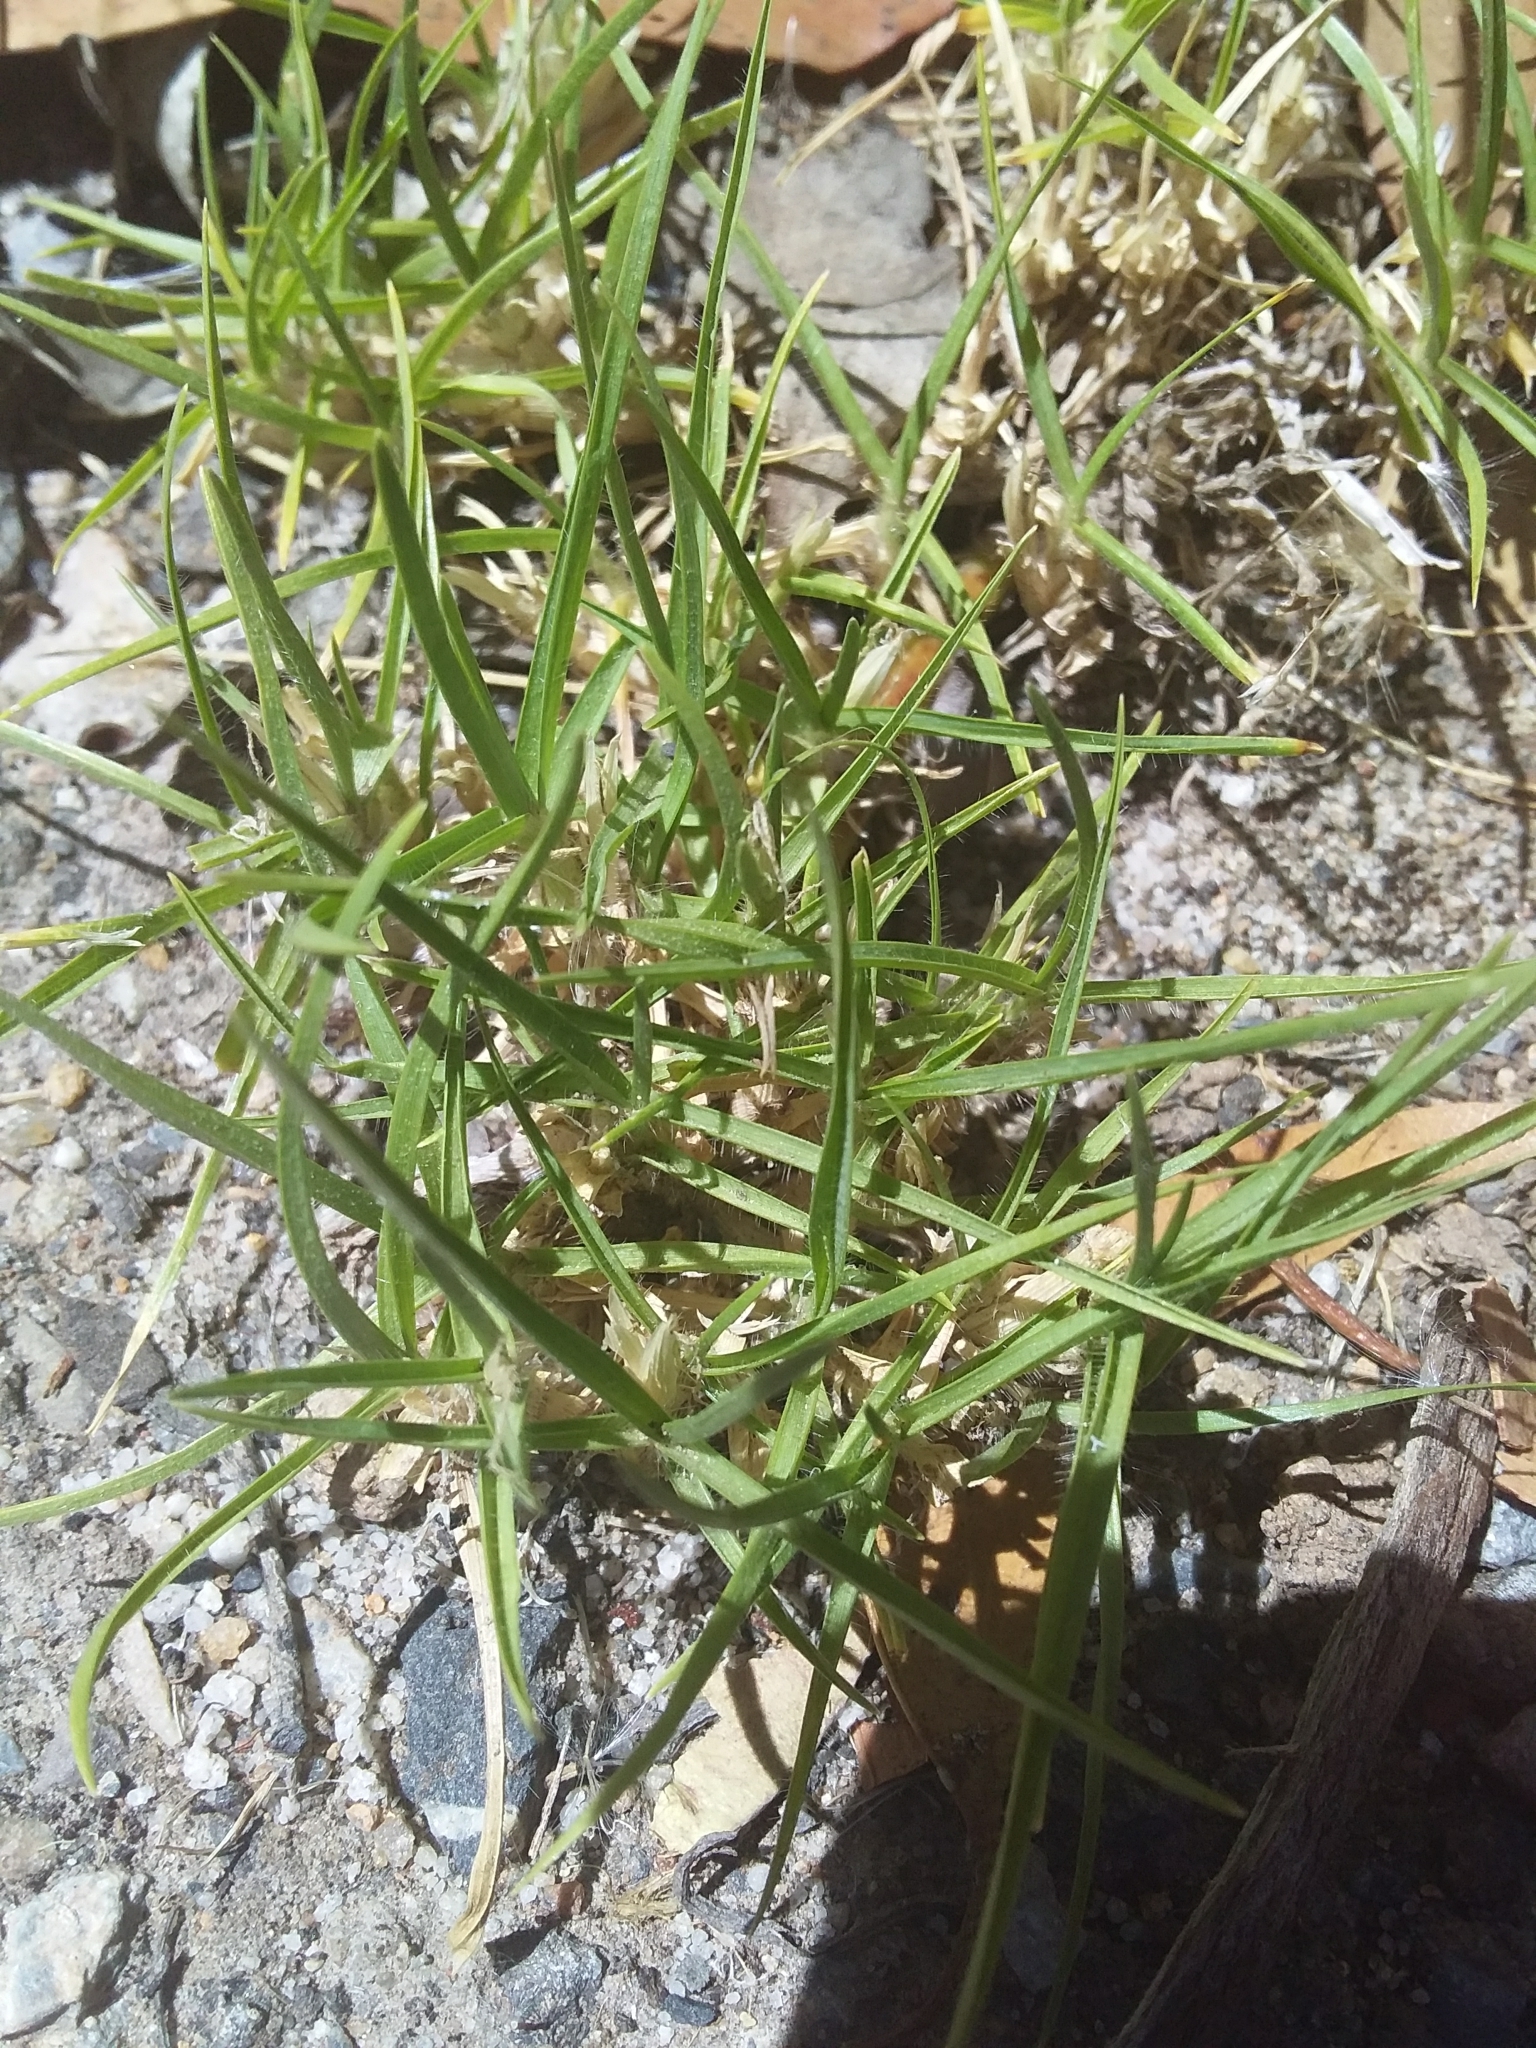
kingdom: Plantae
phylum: Tracheophyta
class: Liliopsida
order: Poales
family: Poaceae
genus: Cenchrus
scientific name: Cenchrus clandestinus
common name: Kikuyugrass
